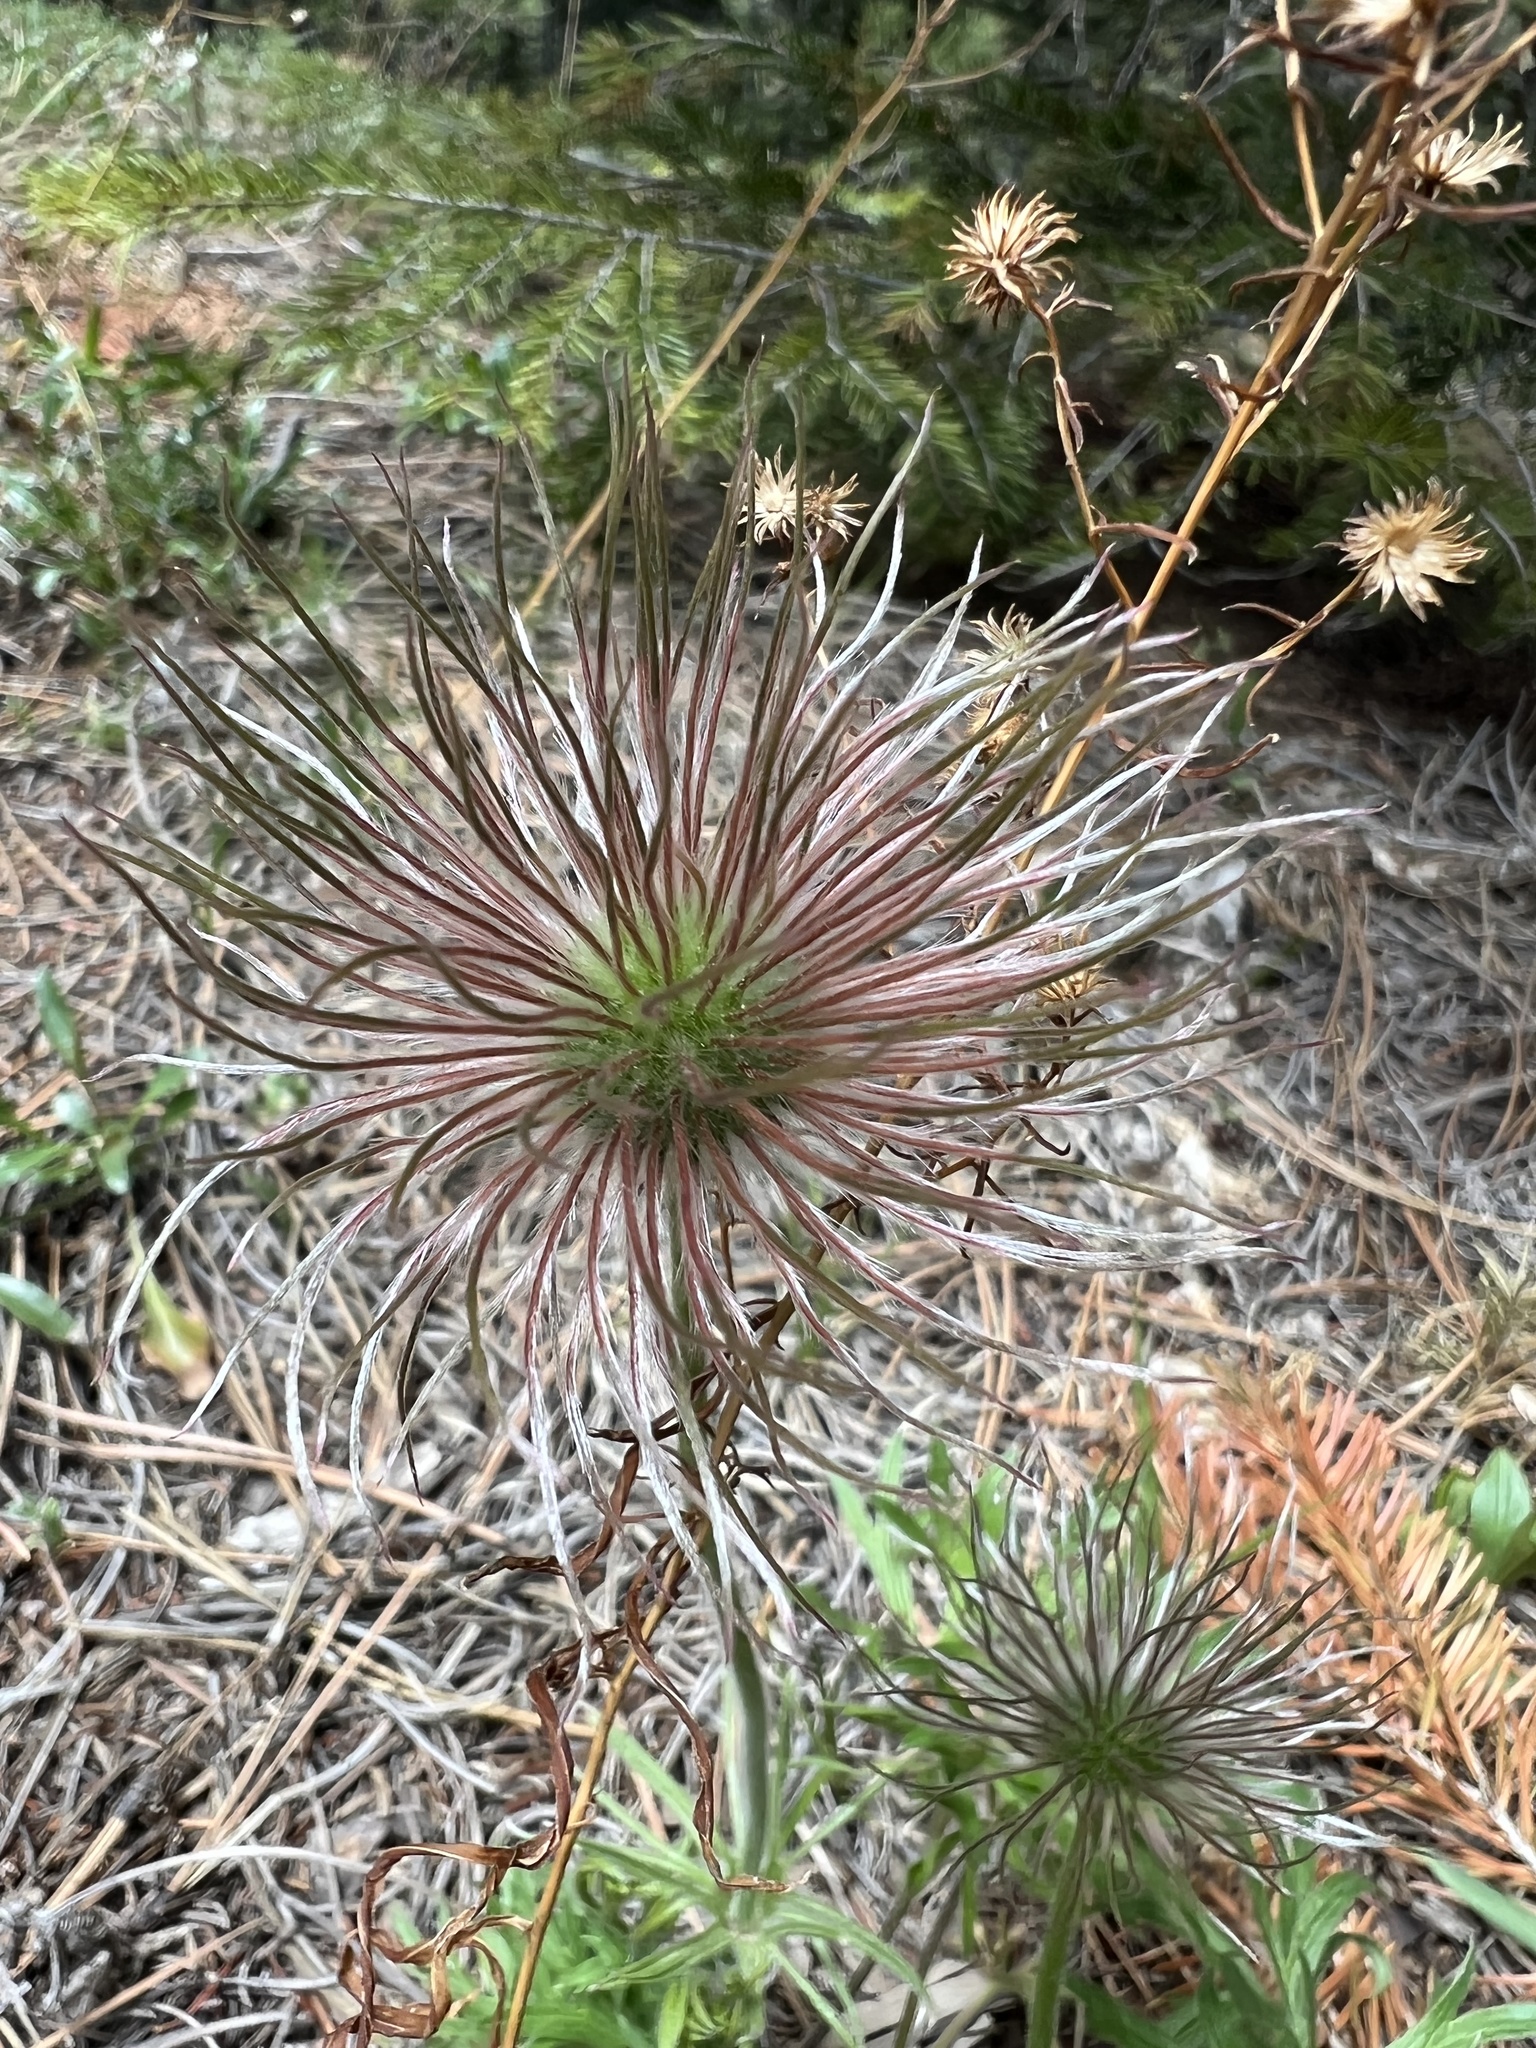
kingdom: Plantae
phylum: Tracheophyta
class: Magnoliopsida
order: Ranunculales
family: Ranunculaceae
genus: Pulsatilla
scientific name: Pulsatilla nuttalliana
